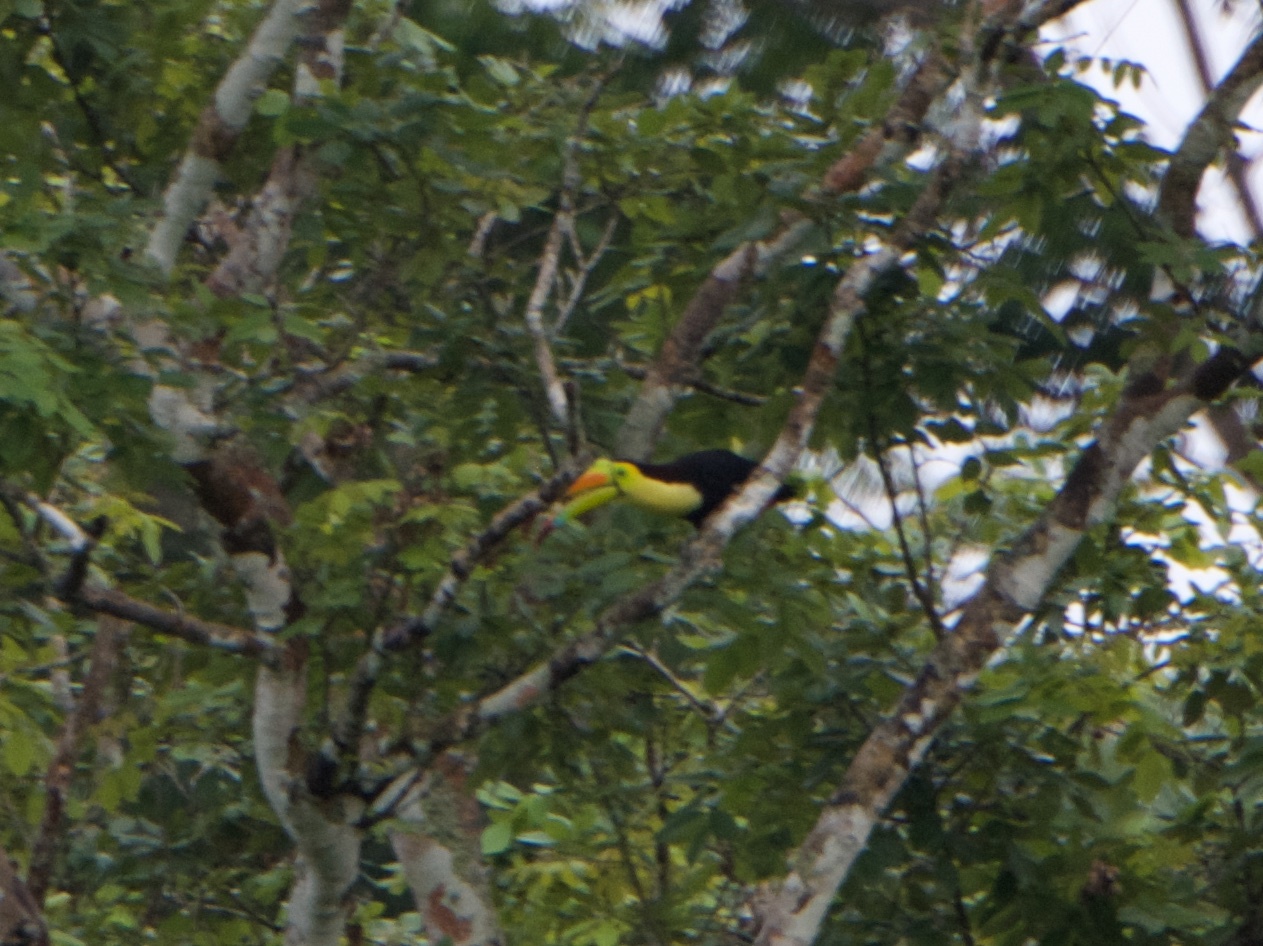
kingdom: Animalia
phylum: Chordata
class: Aves
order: Piciformes
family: Ramphastidae
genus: Ramphastos
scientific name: Ramphastos sulfuratus
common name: Keel-billed toucan
